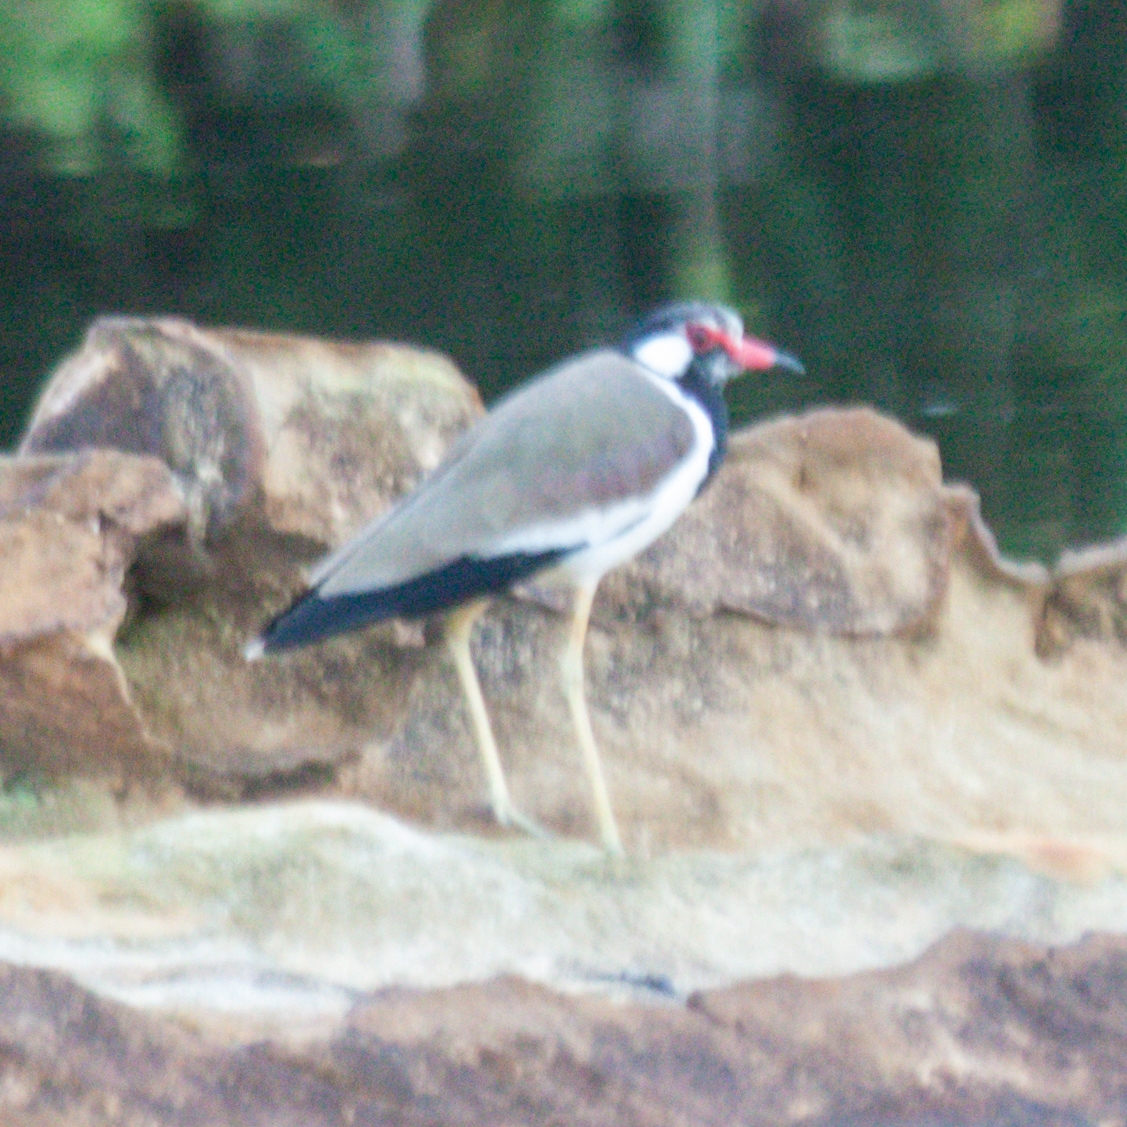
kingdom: Animalia
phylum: Chordata
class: Aves
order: Charadriiformes
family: Charadriidae
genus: Vanellus
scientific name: Vanellus indicus
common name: Red-wattled lapwing
